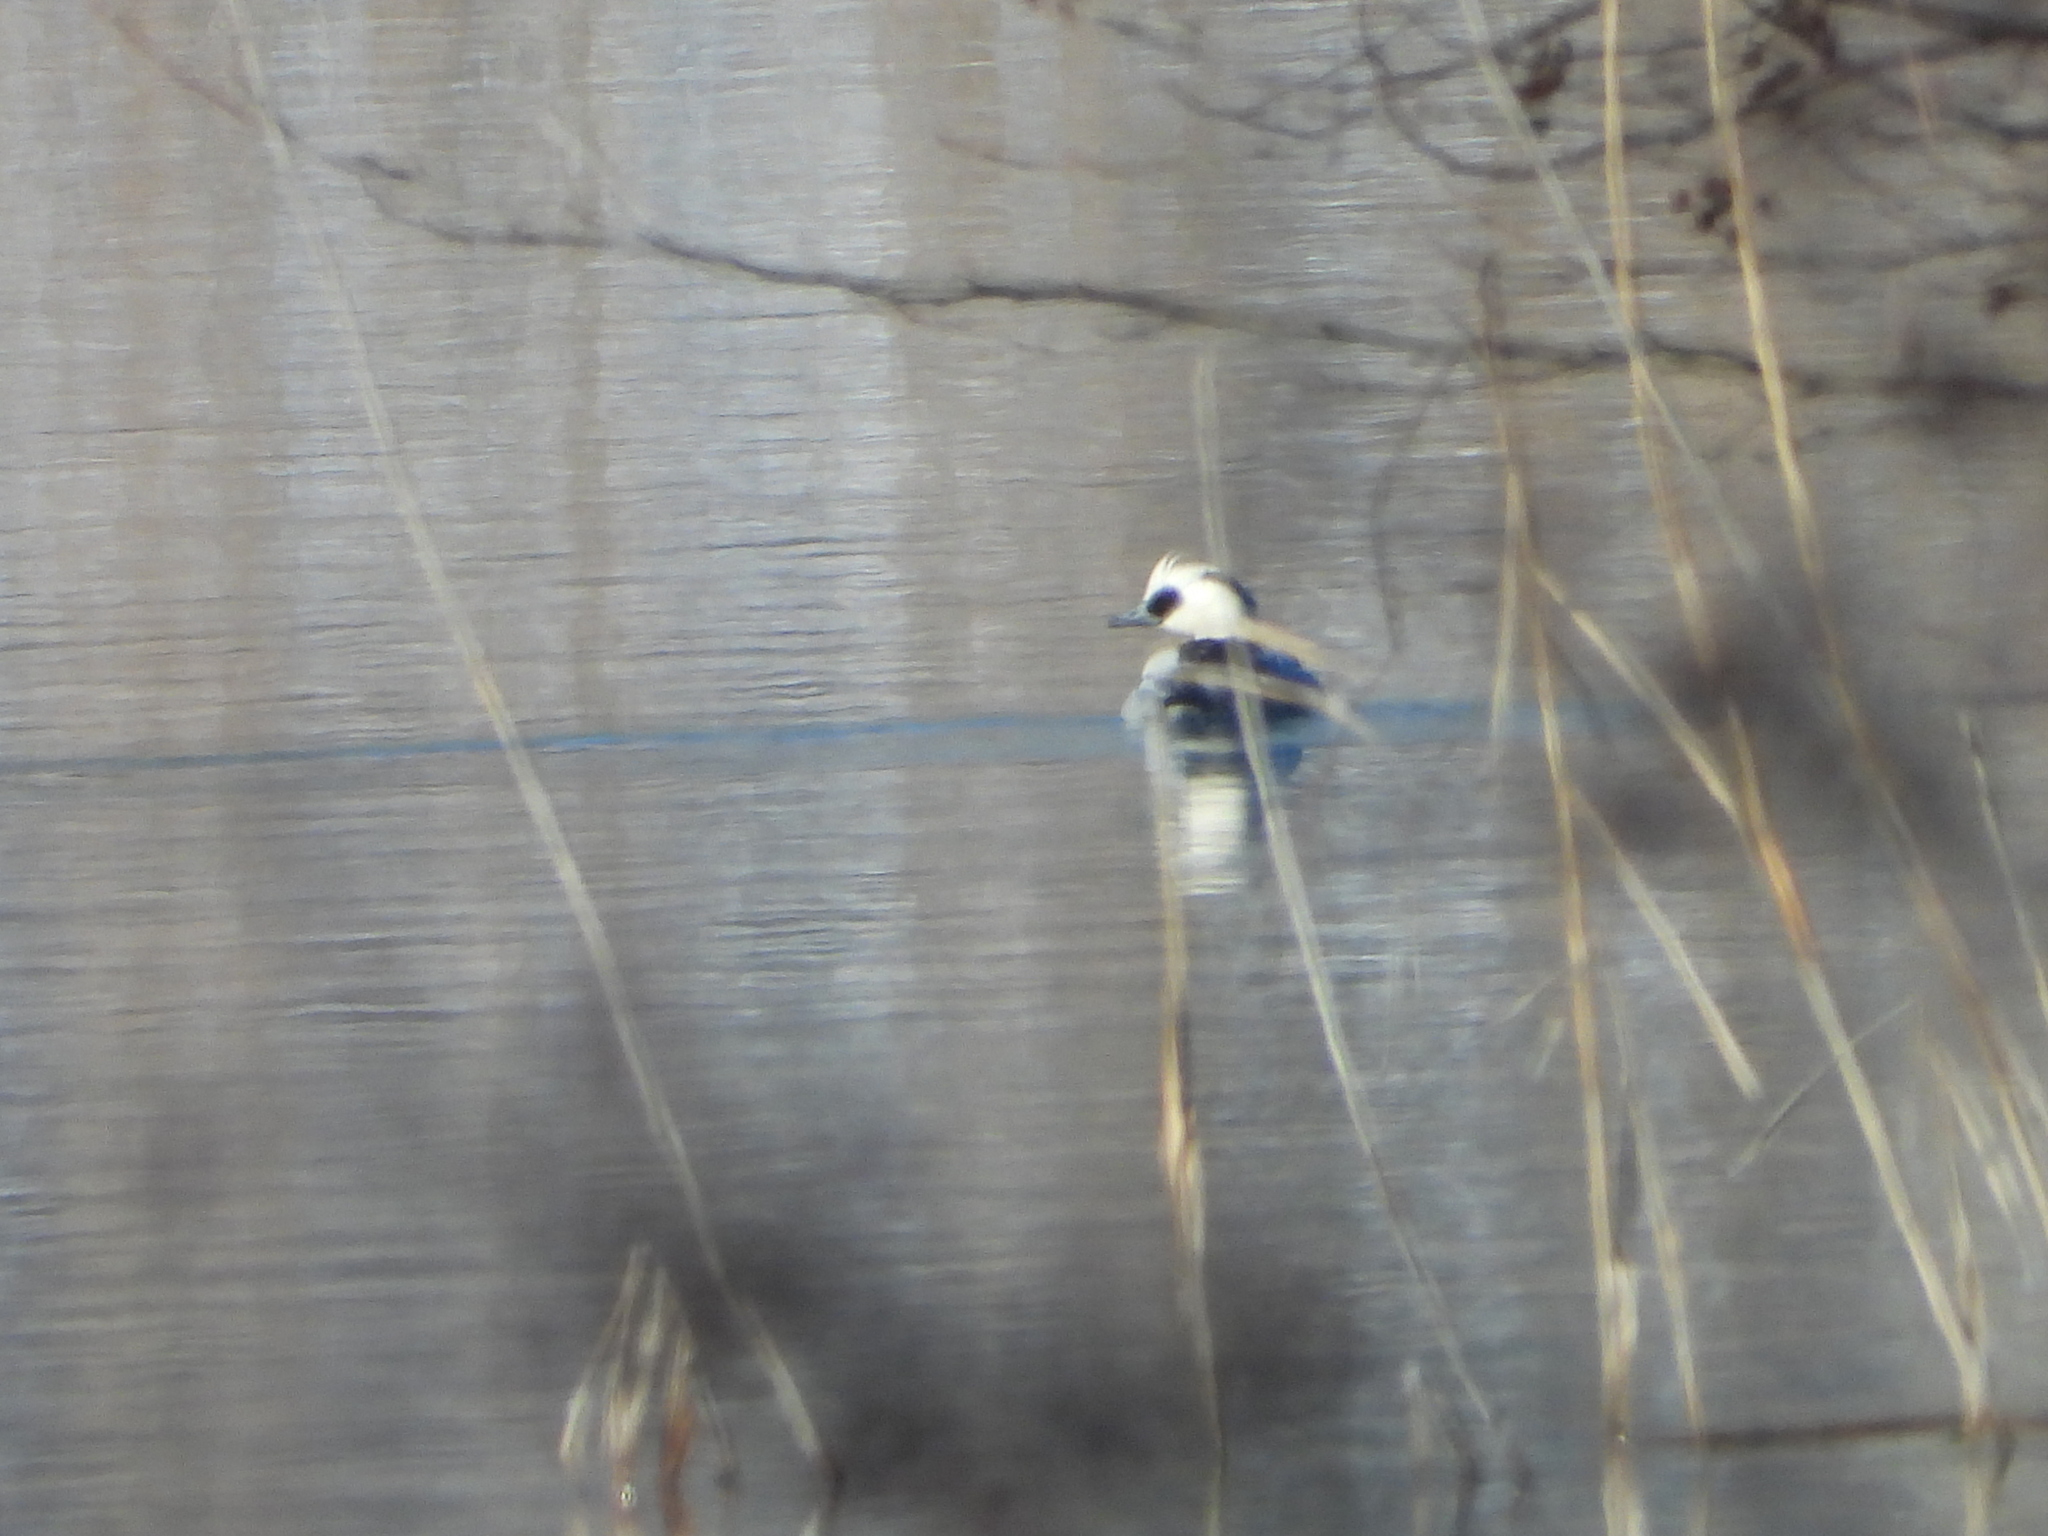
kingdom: Animalia
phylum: Chordata
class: Aves
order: Anseriformes
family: Anatidae
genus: Mergellus
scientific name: Mergellus albellus
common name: Smew
